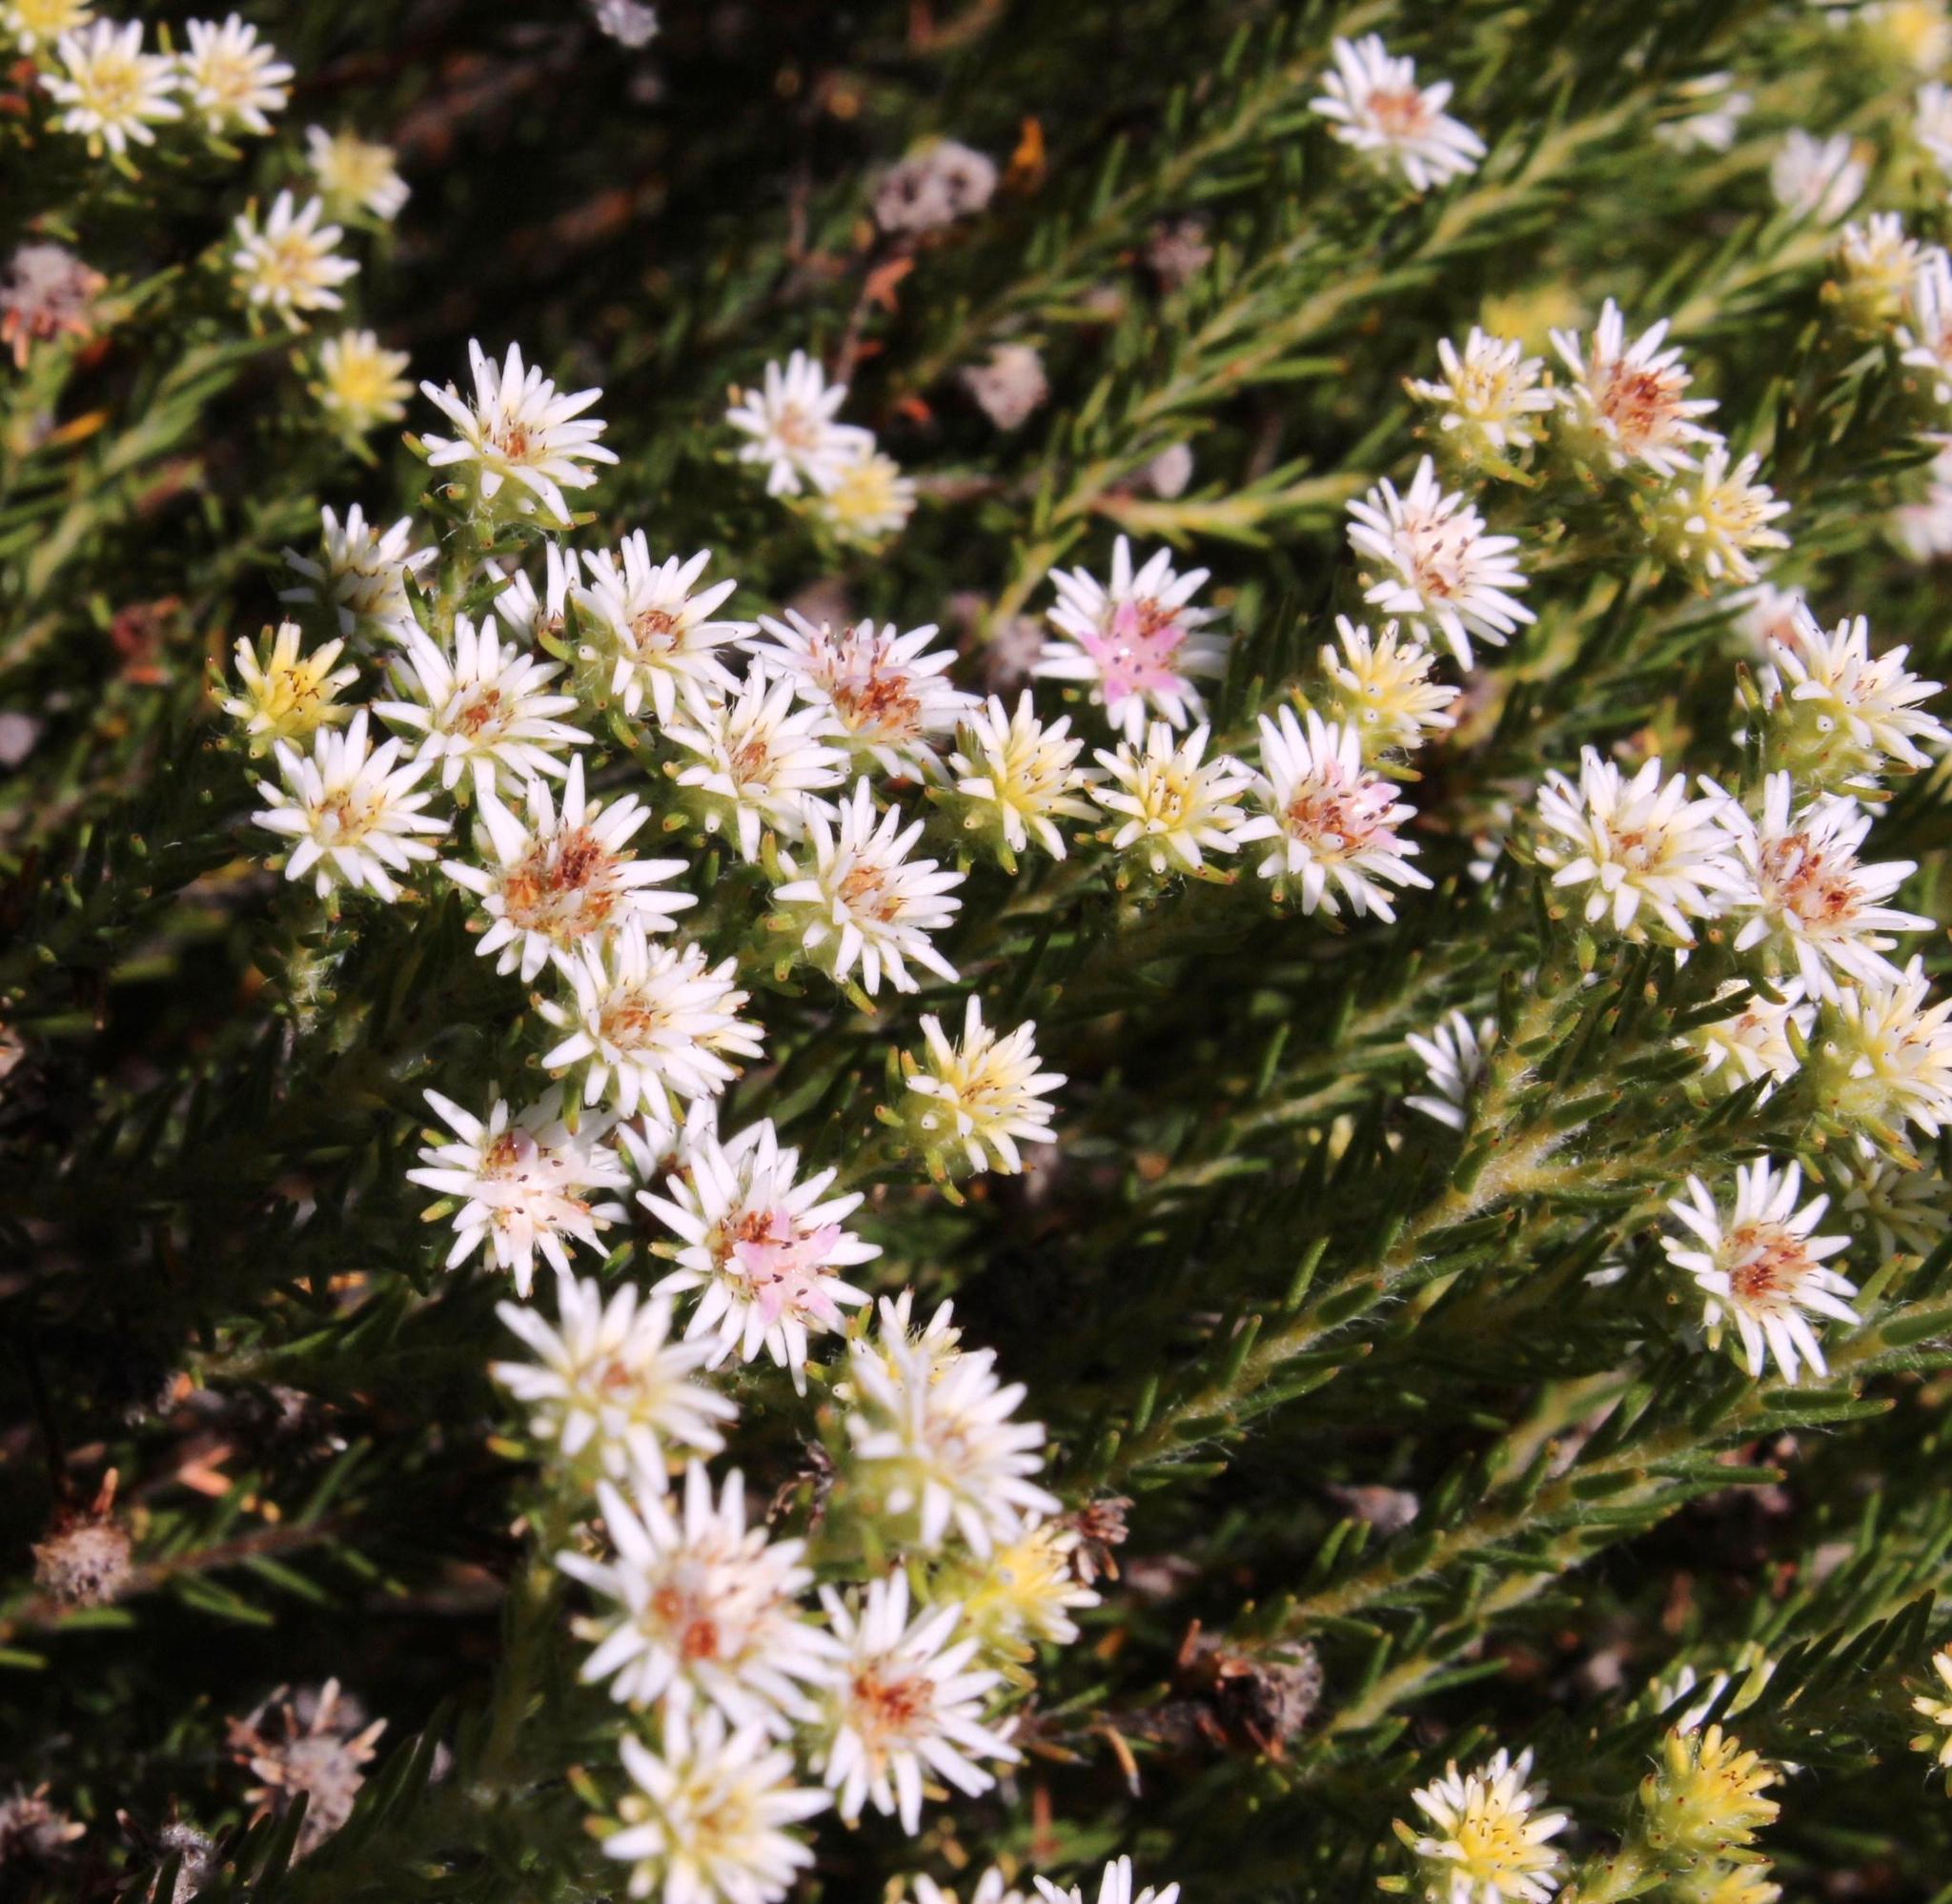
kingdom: Plantae
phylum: Tracheophyta
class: Magnoliopsida
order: Bruniales
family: Bruniaceae
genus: Staavia
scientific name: Staavia radiata
